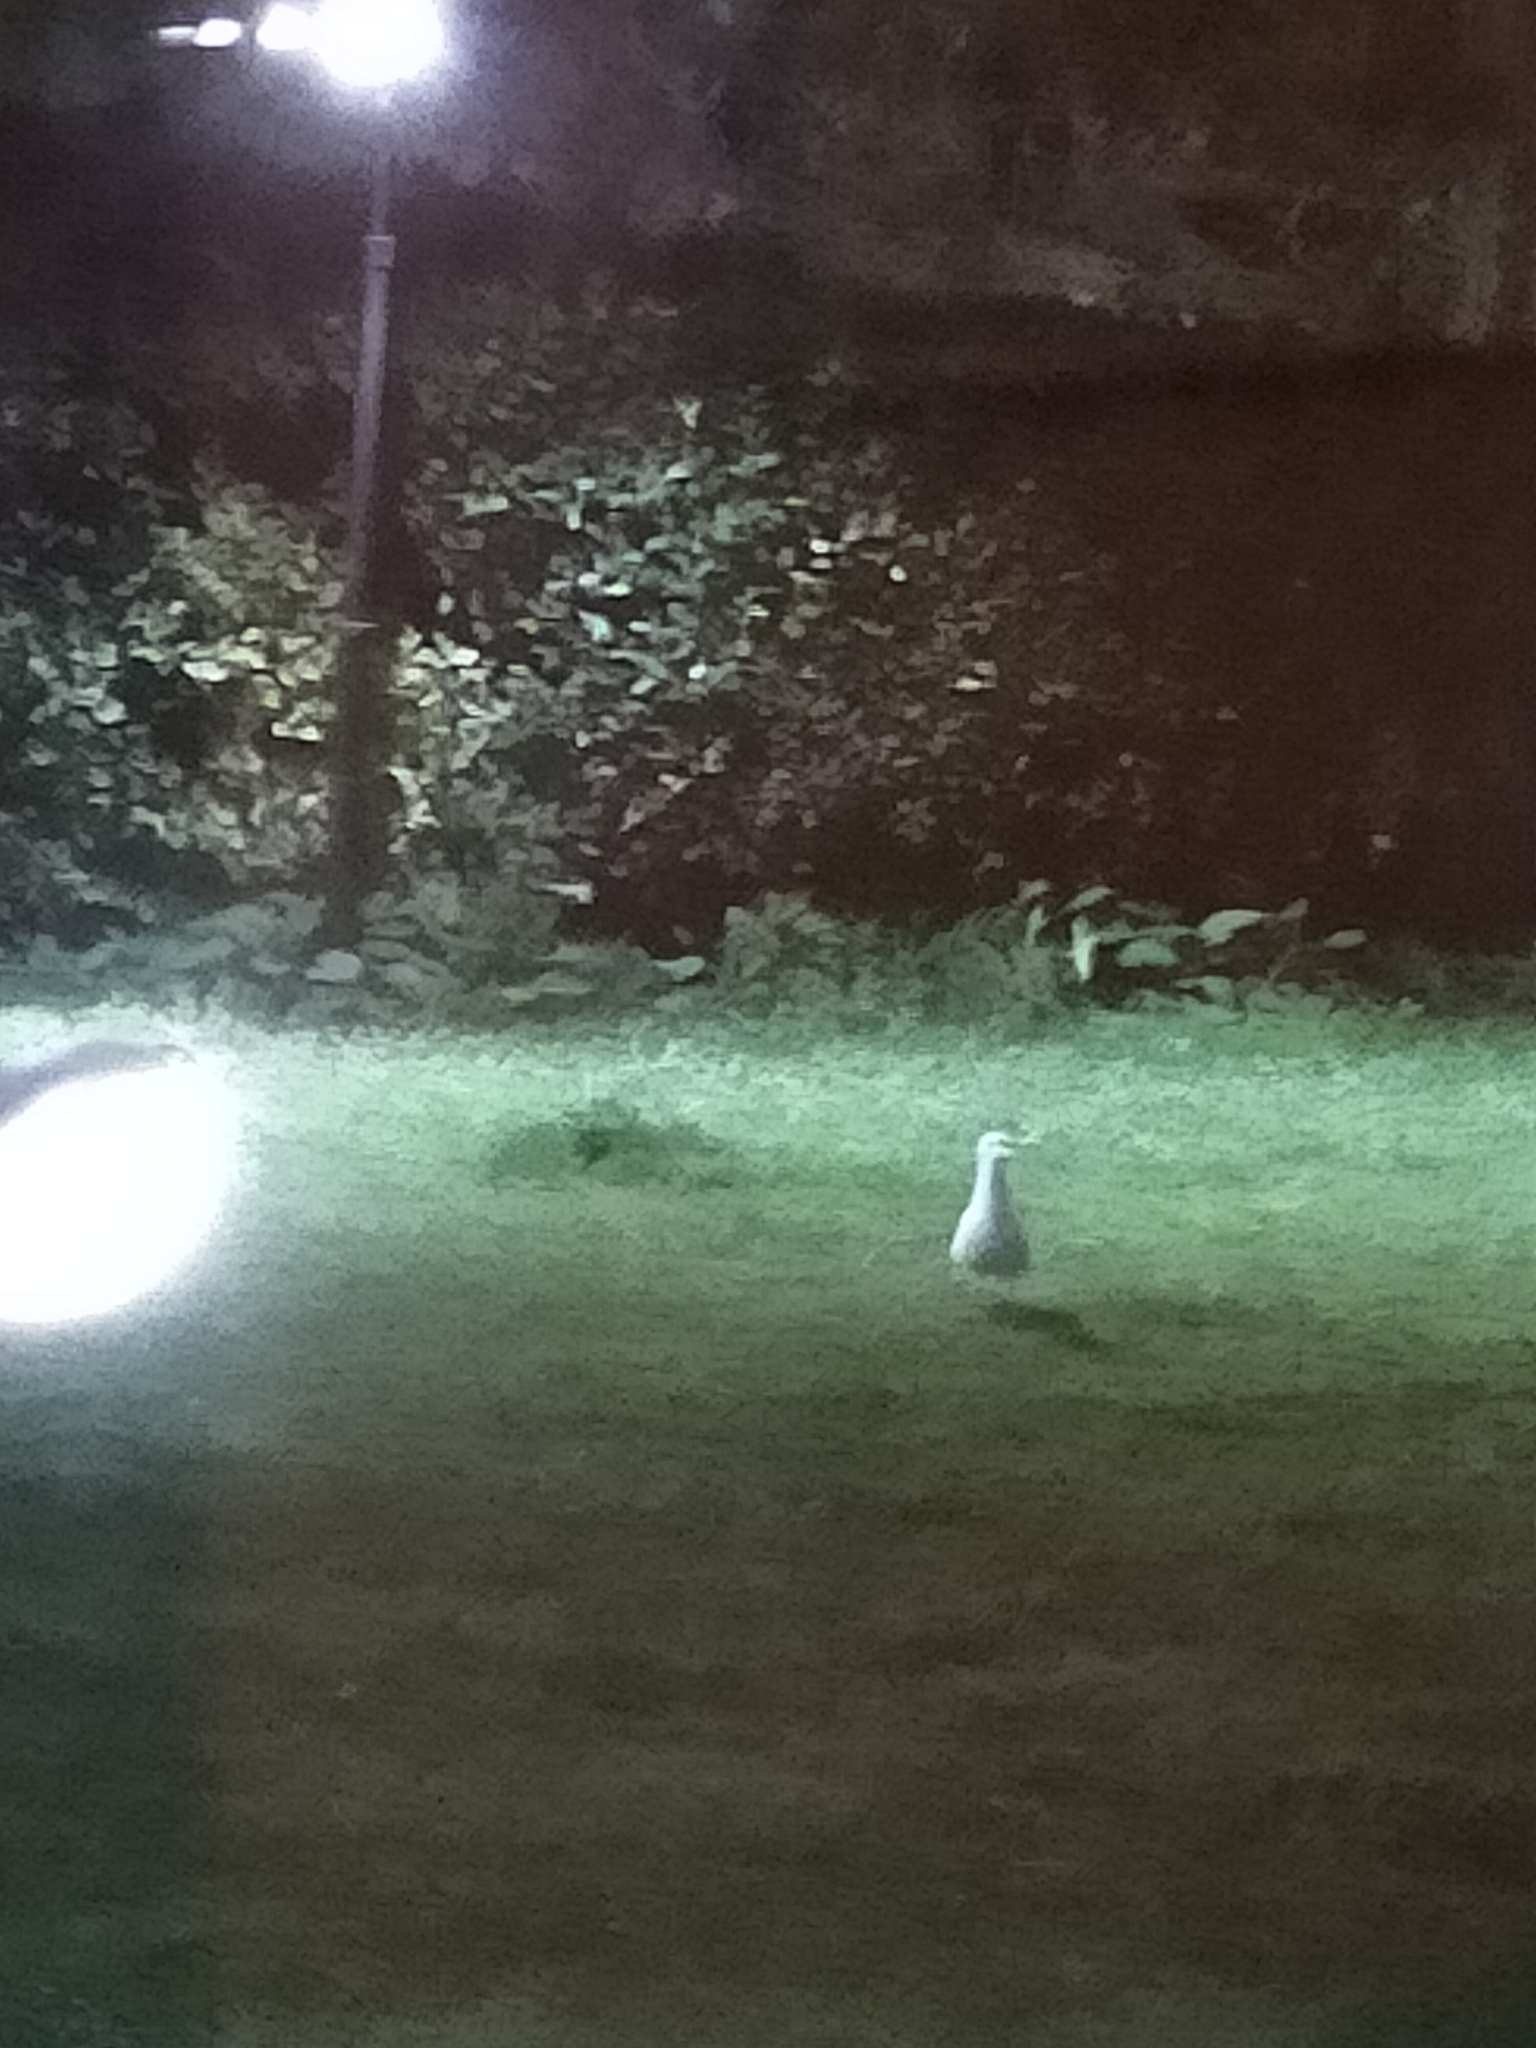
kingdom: Animalia
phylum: Chordata
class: Aves
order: Charadriiformes
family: Laridae
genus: Larus
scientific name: Larus
